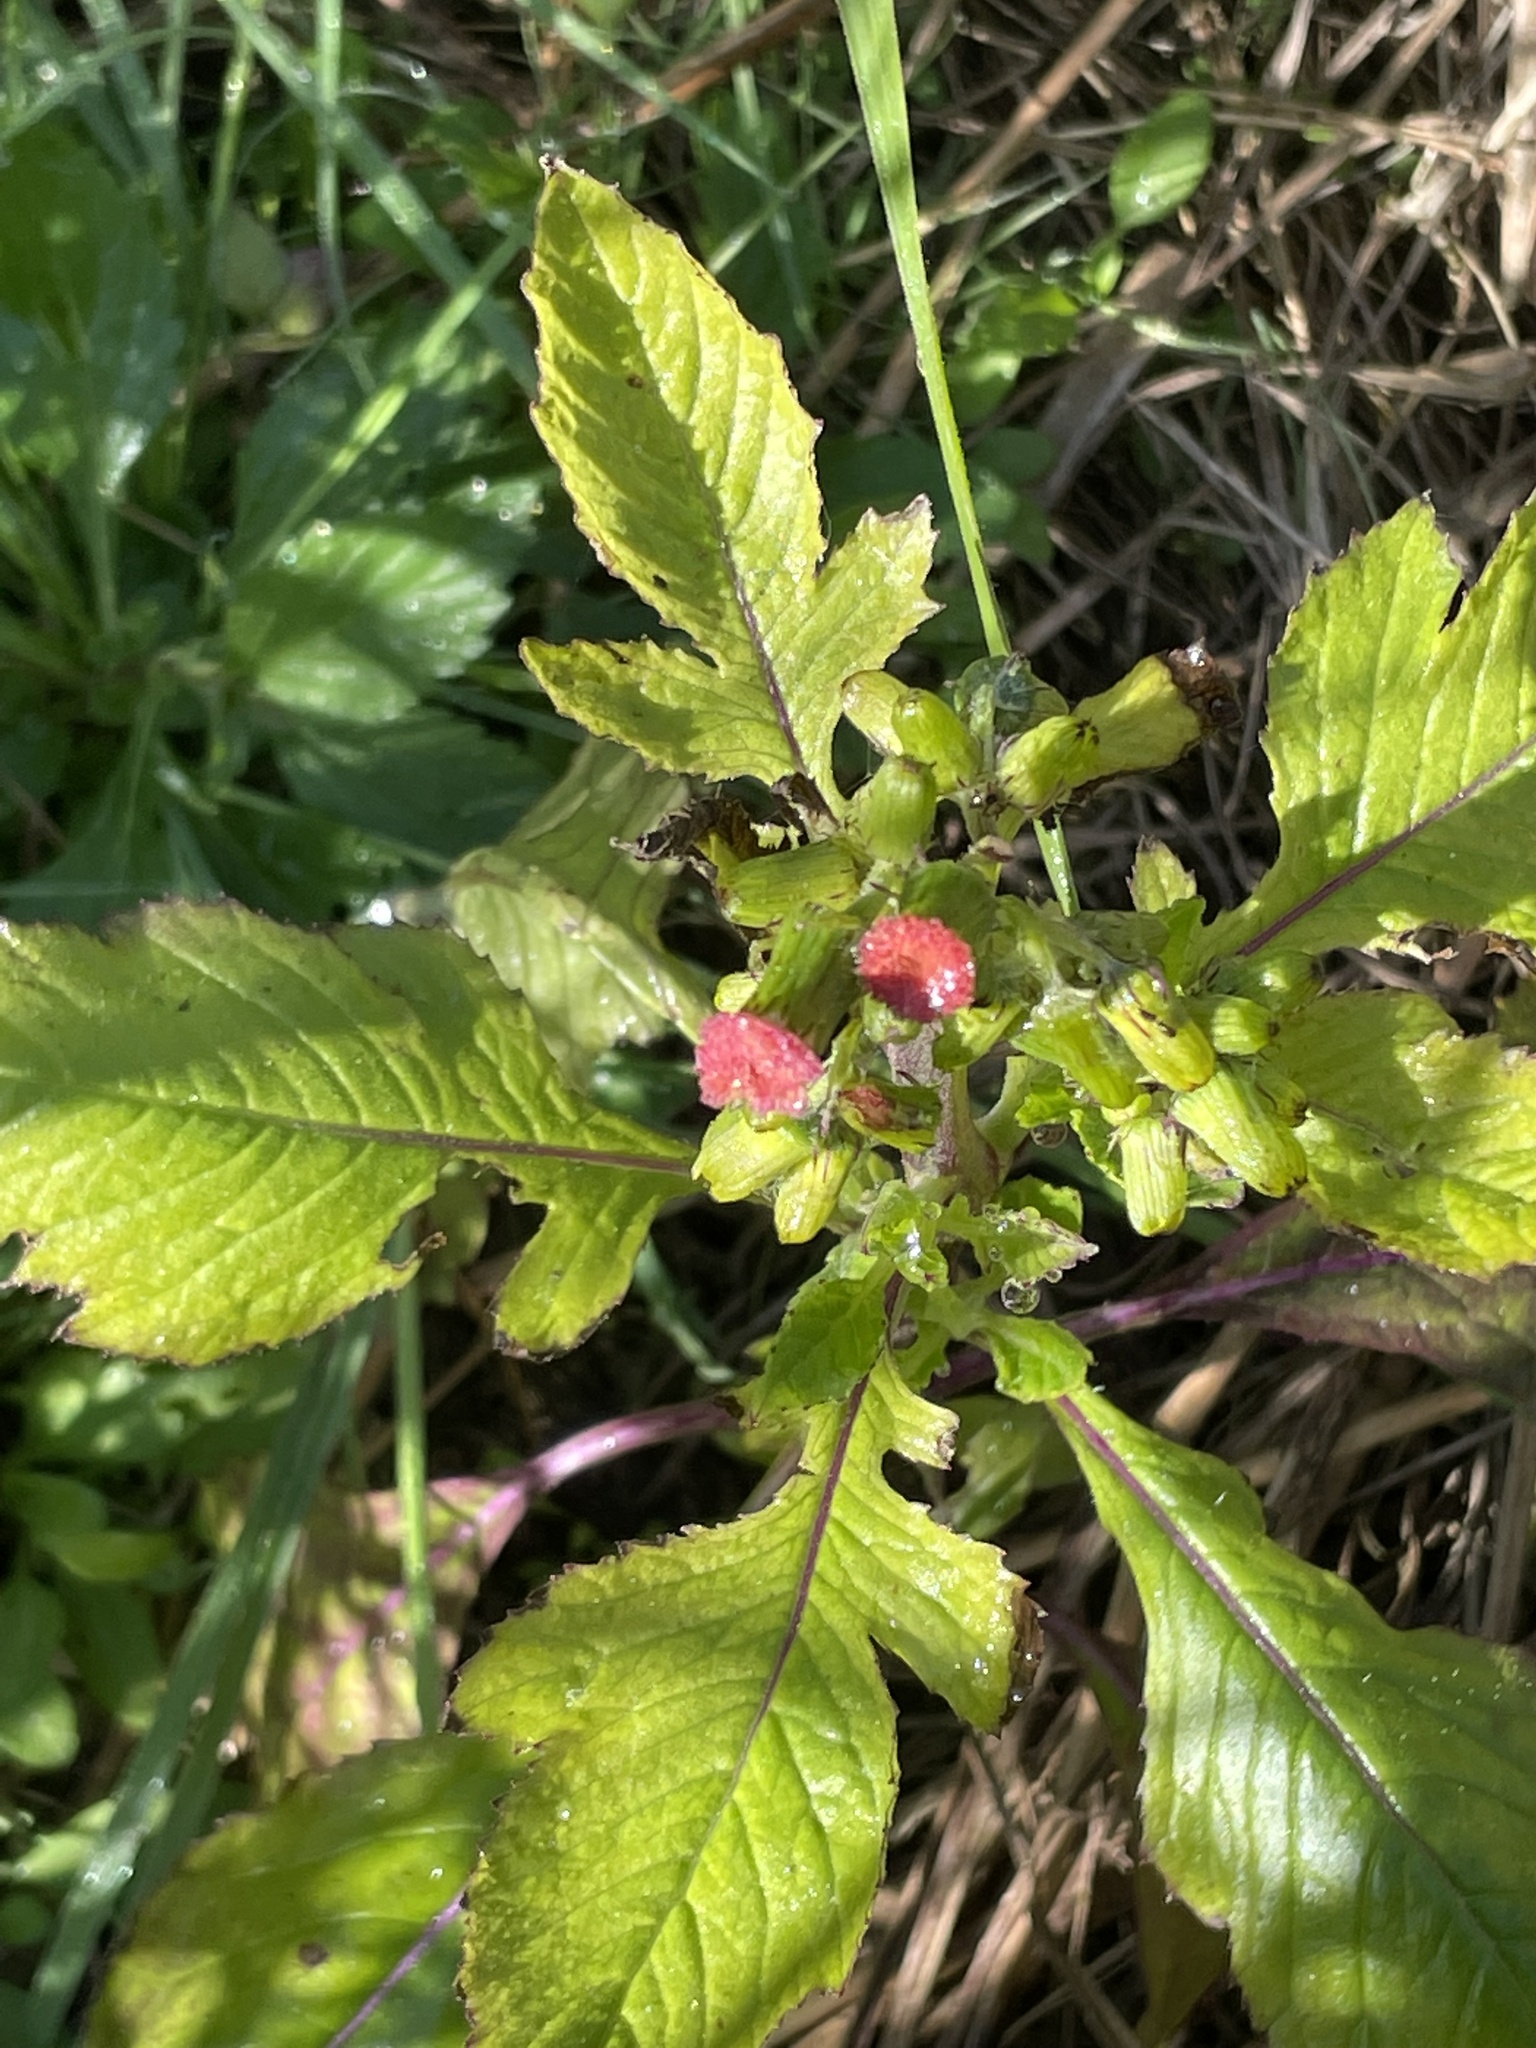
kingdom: Plantae
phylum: Tracheophyta
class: Magnoliopsida
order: Asterales
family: Asteraceae
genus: Crassocephalum
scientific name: Crassocephalum crepidioides
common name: Redflower ragleaf
